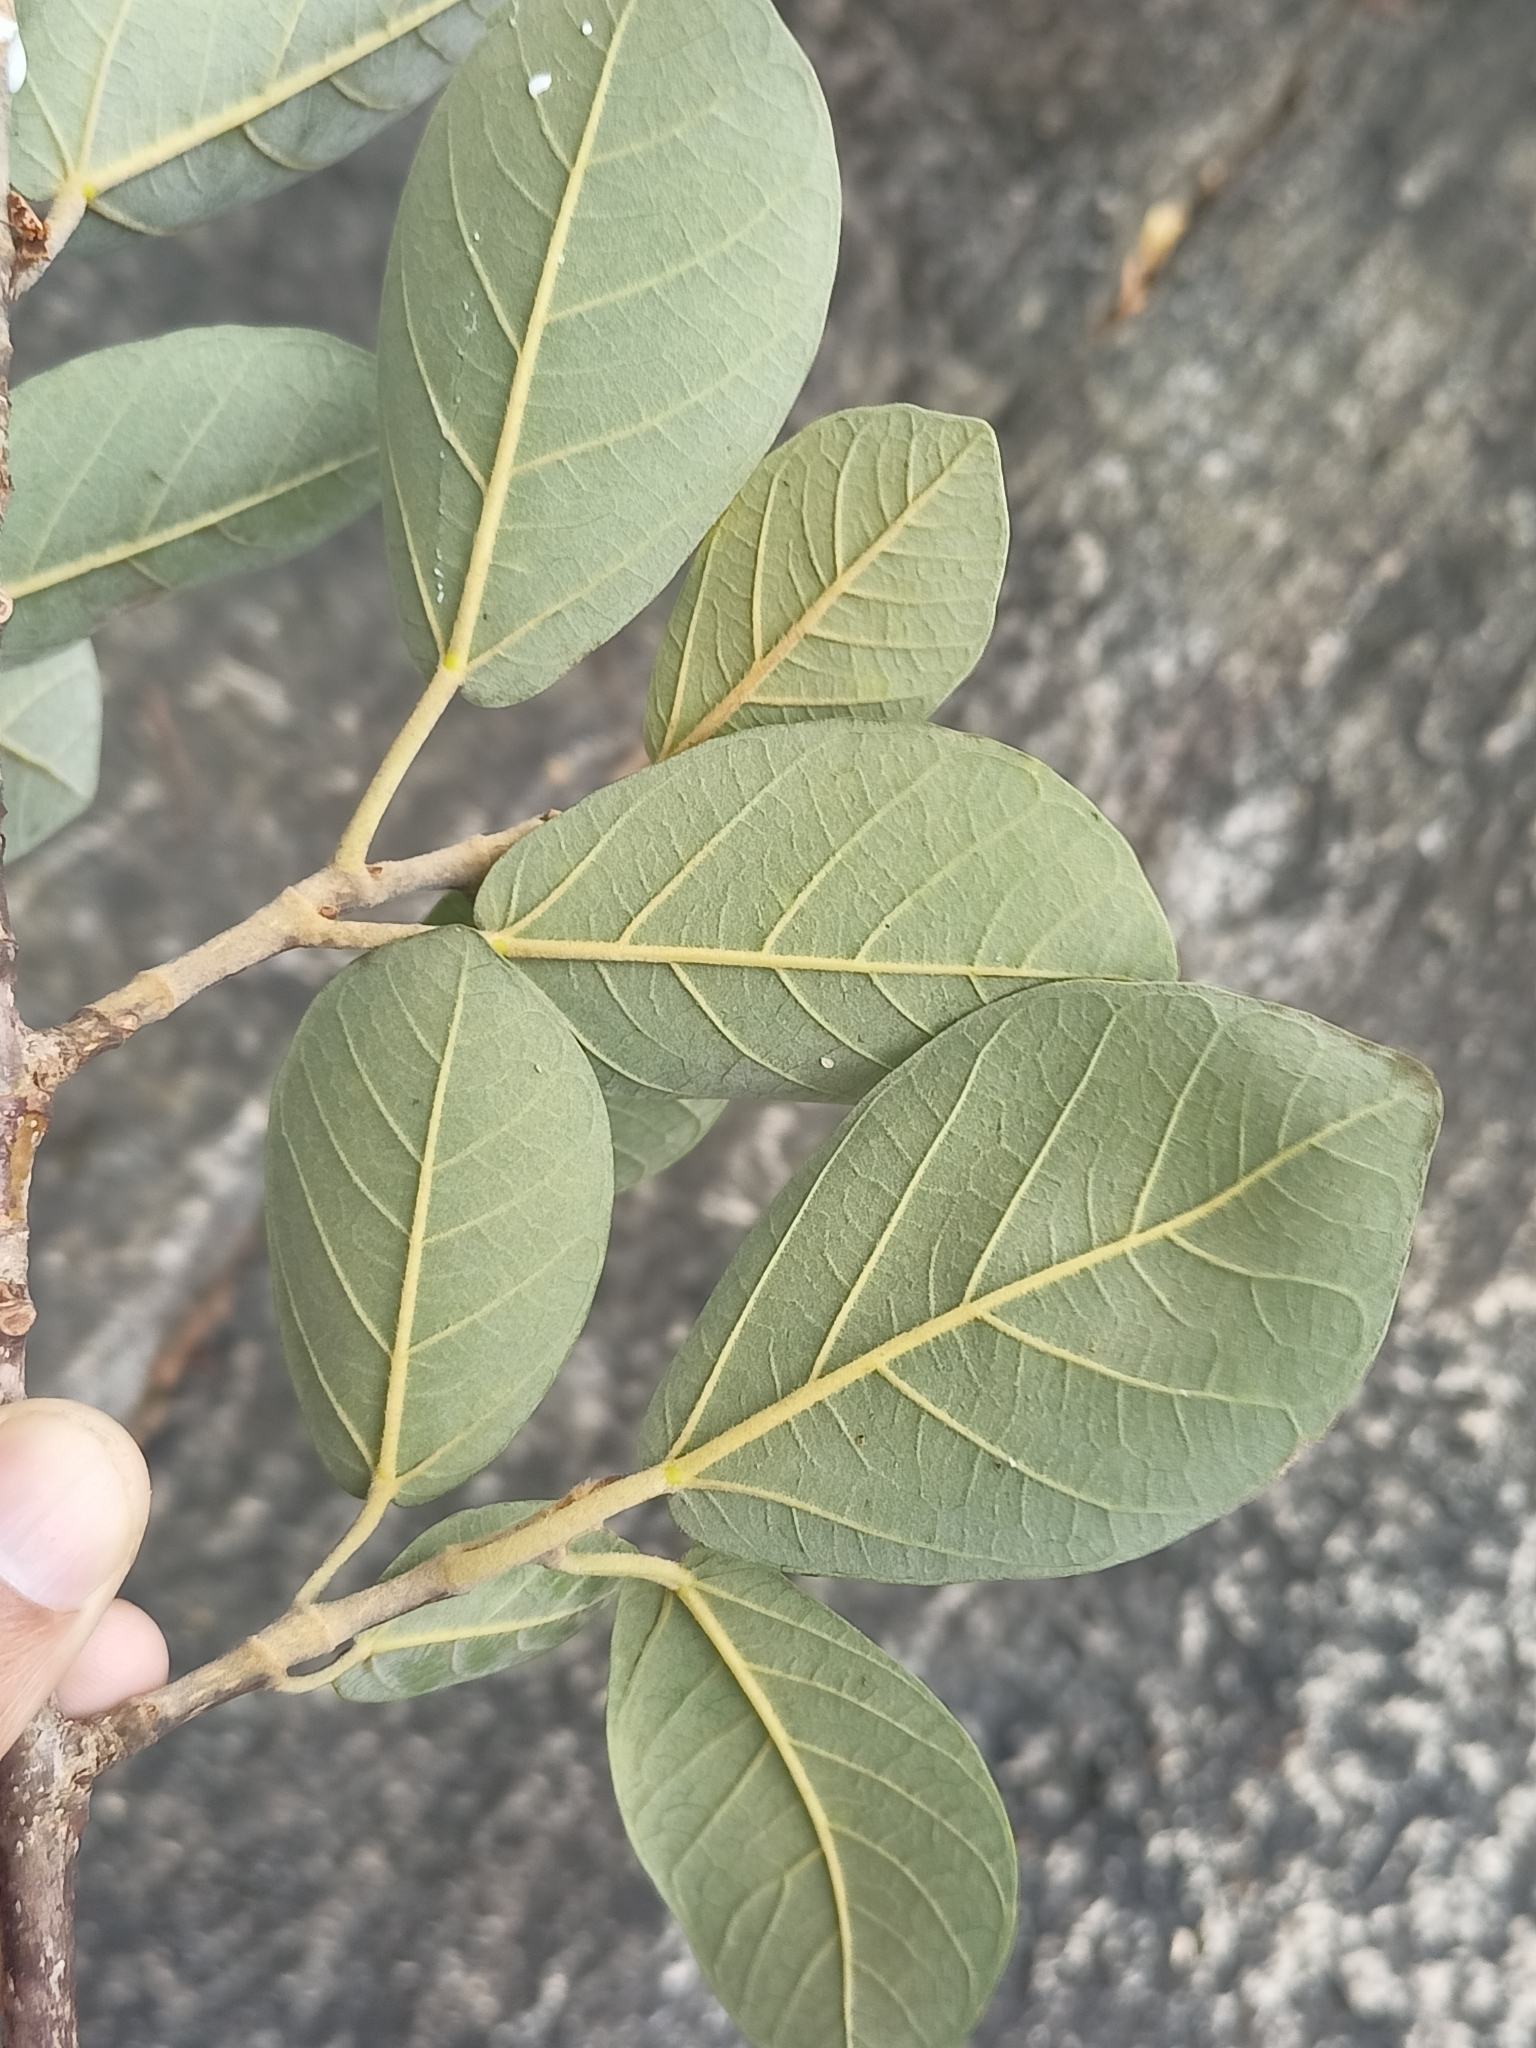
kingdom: Plantae
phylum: Tracheophyta
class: Magnoliopsida
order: Rosales
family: Moraceae
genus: Ficus
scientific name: Ficus mollis
